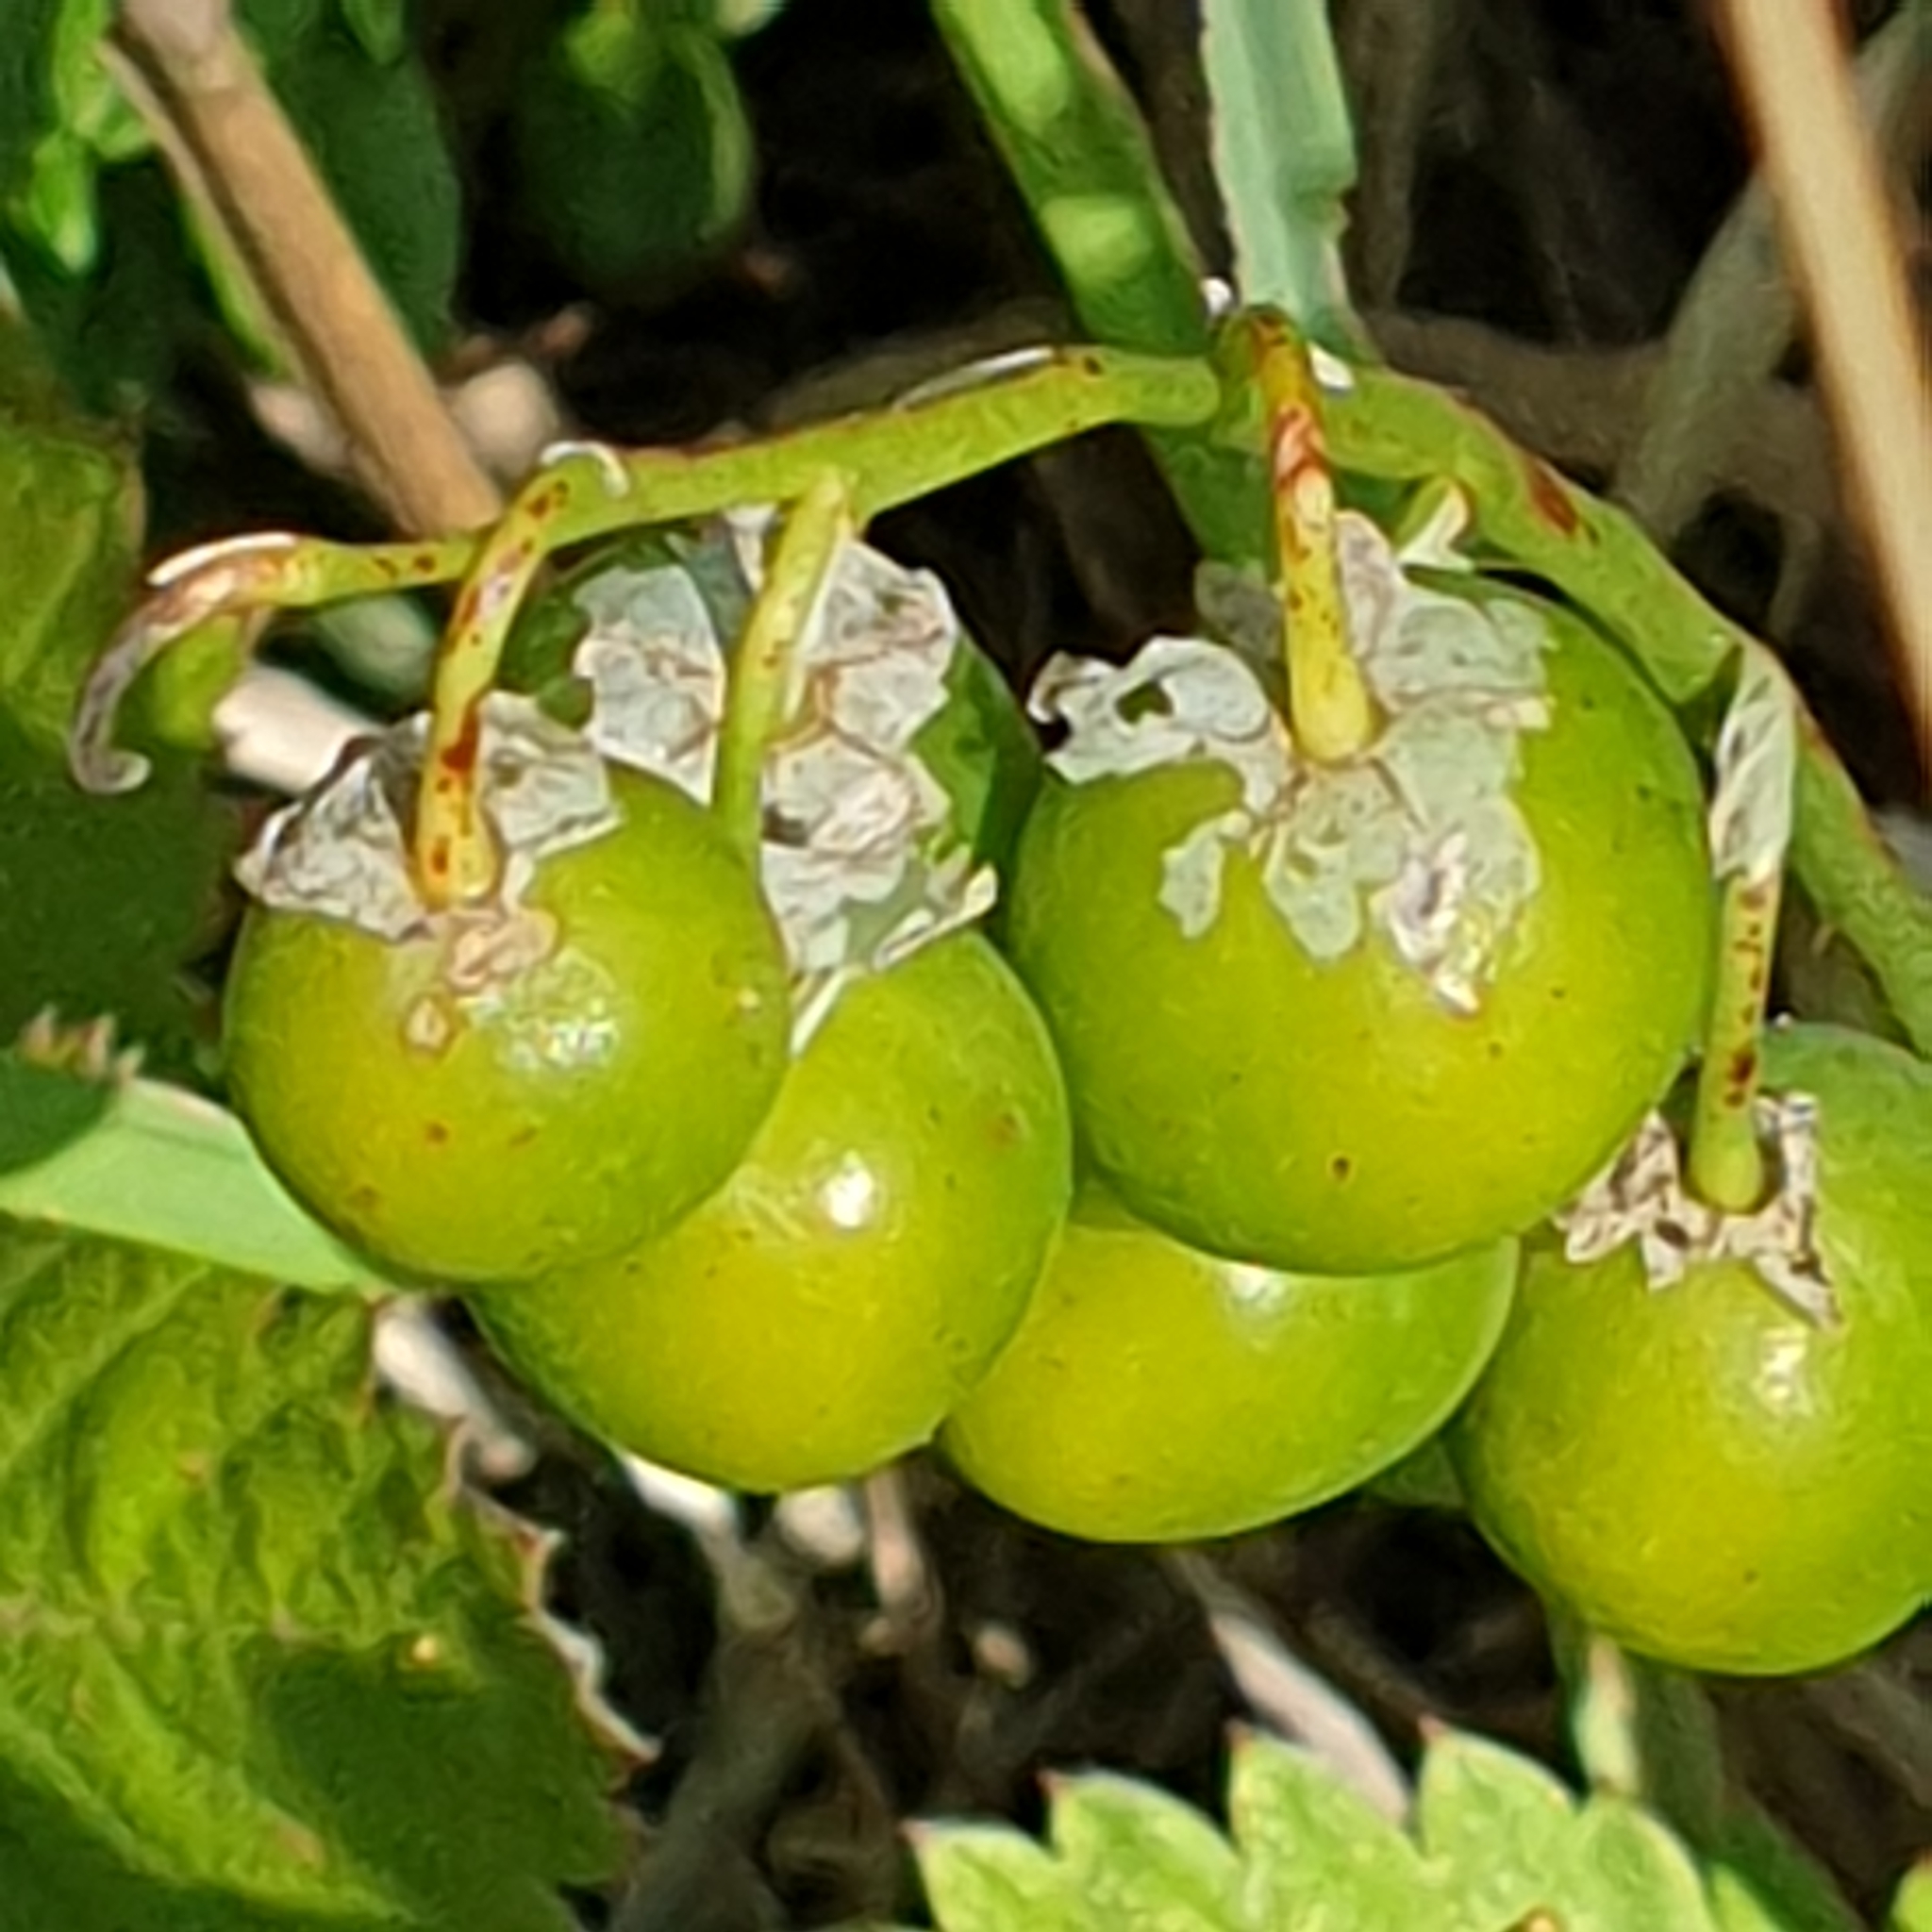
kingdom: Plantae
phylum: Tracheophyta
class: Liliopsida
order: Asparagales
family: Asparagaceae
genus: Convallaria
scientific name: Convallaria majalis
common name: Lily-of-the-valley
